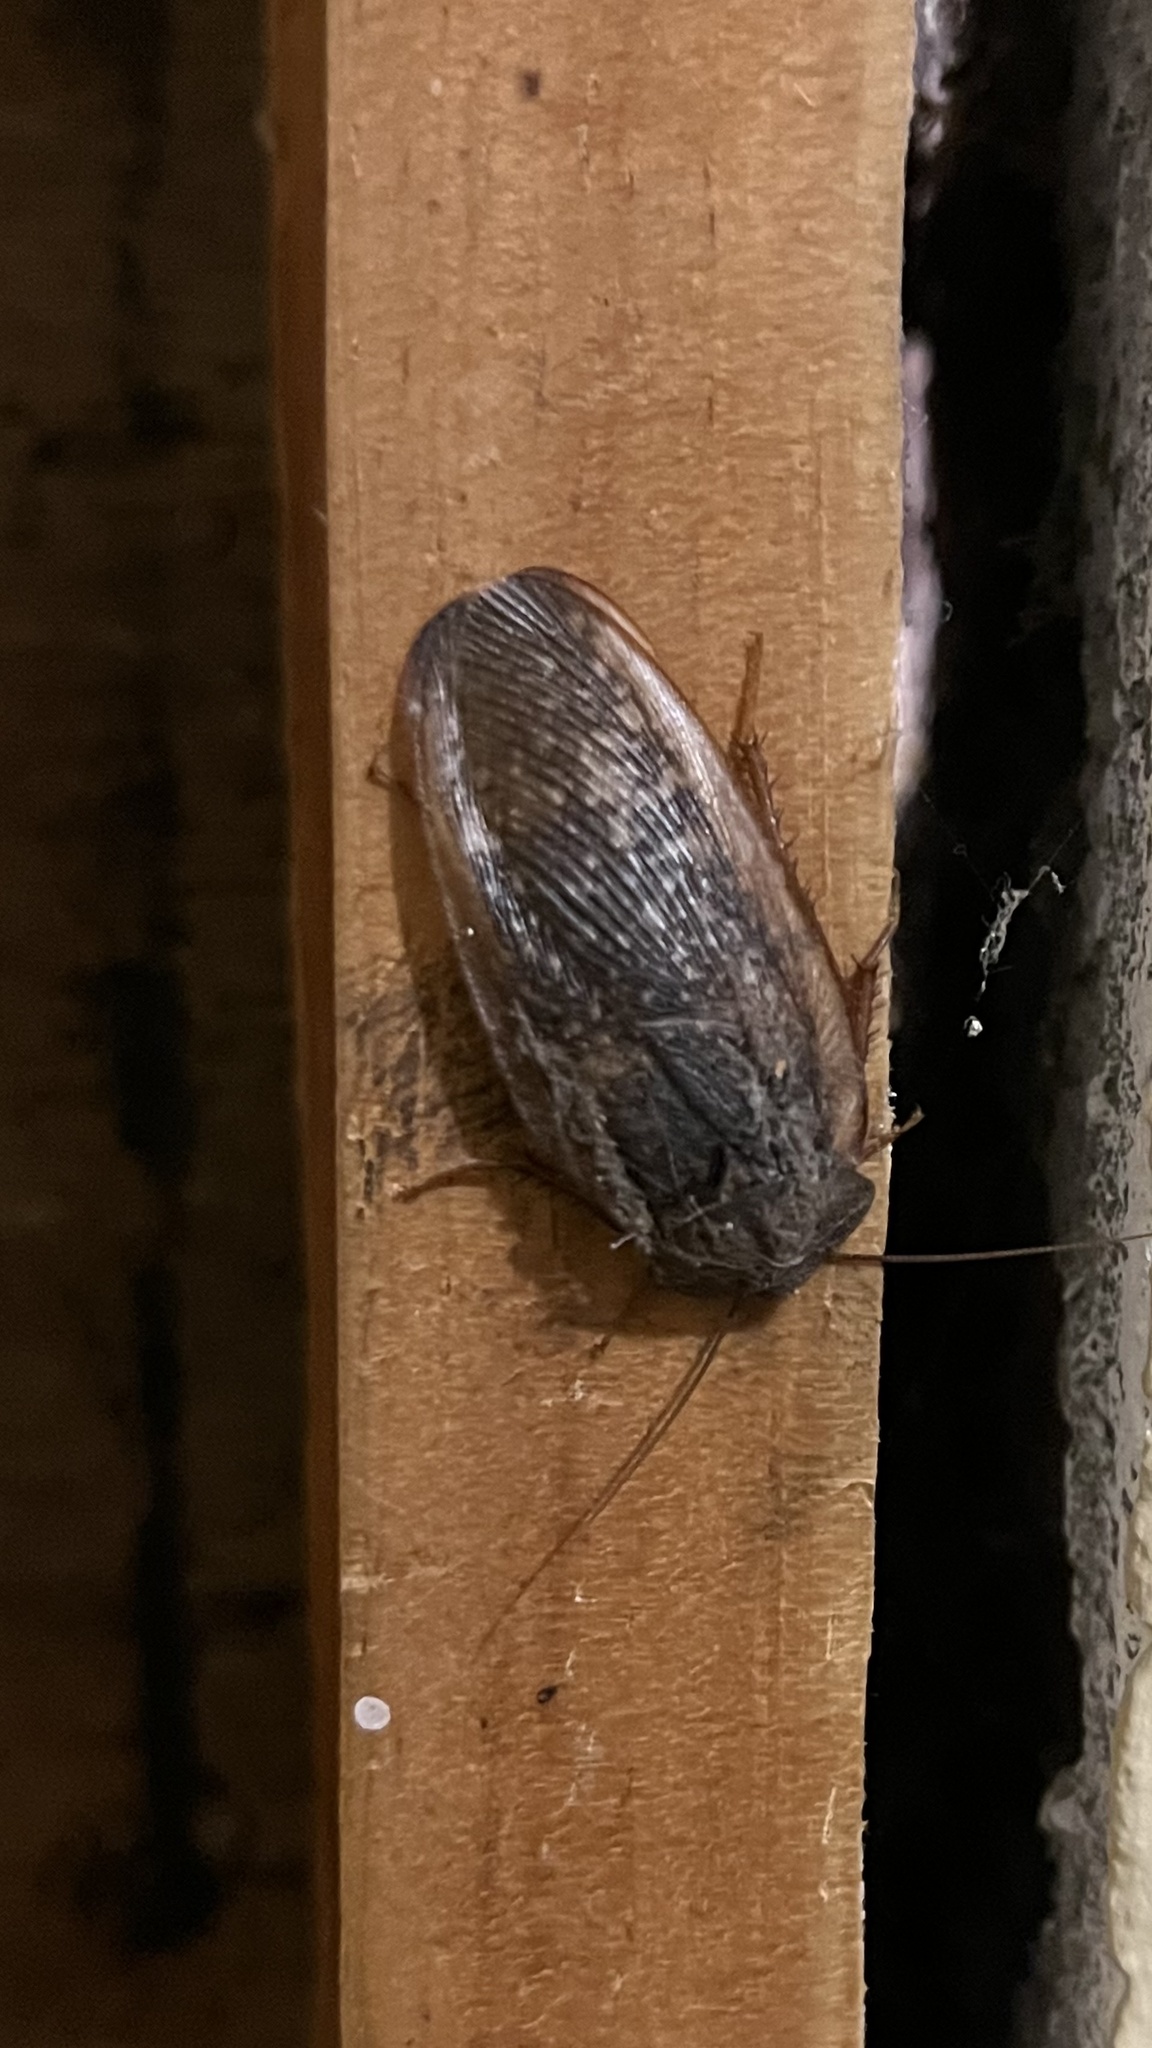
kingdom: Animalia
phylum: Arthropoda
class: Insecta
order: Blattodea
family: Corydiidae
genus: Homoeogamia
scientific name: Homoeogamia mexicana
